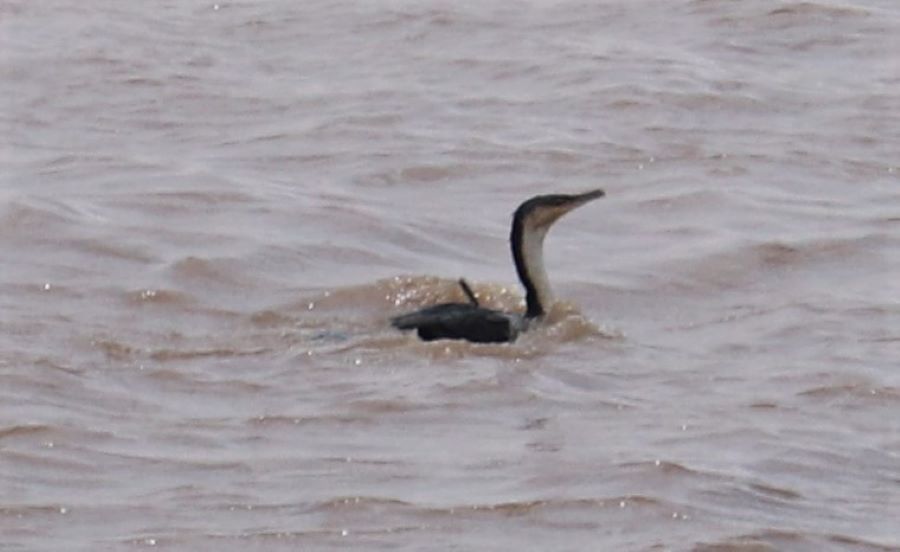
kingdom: Animalia
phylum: Chordata
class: Aves
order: Suliformes
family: Phalacrocoracidae
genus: Phalacrocorax
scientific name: Phalacrocorax carbo
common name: Great cormorant
